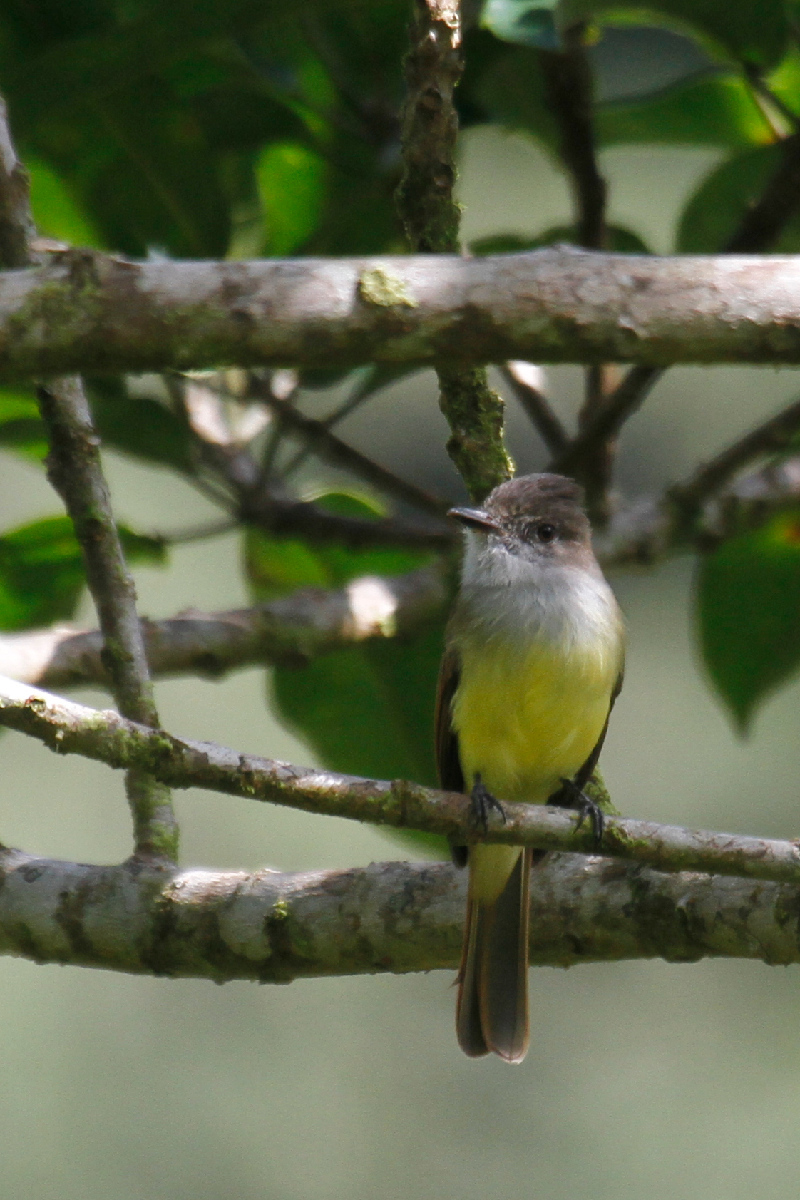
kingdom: Animalia
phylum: Chordata
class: Aves
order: Passeriformes
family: Tyrannidae
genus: Myiarchus
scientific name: Myiarchus tuberculifer
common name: Dusky-capped flycatcher
